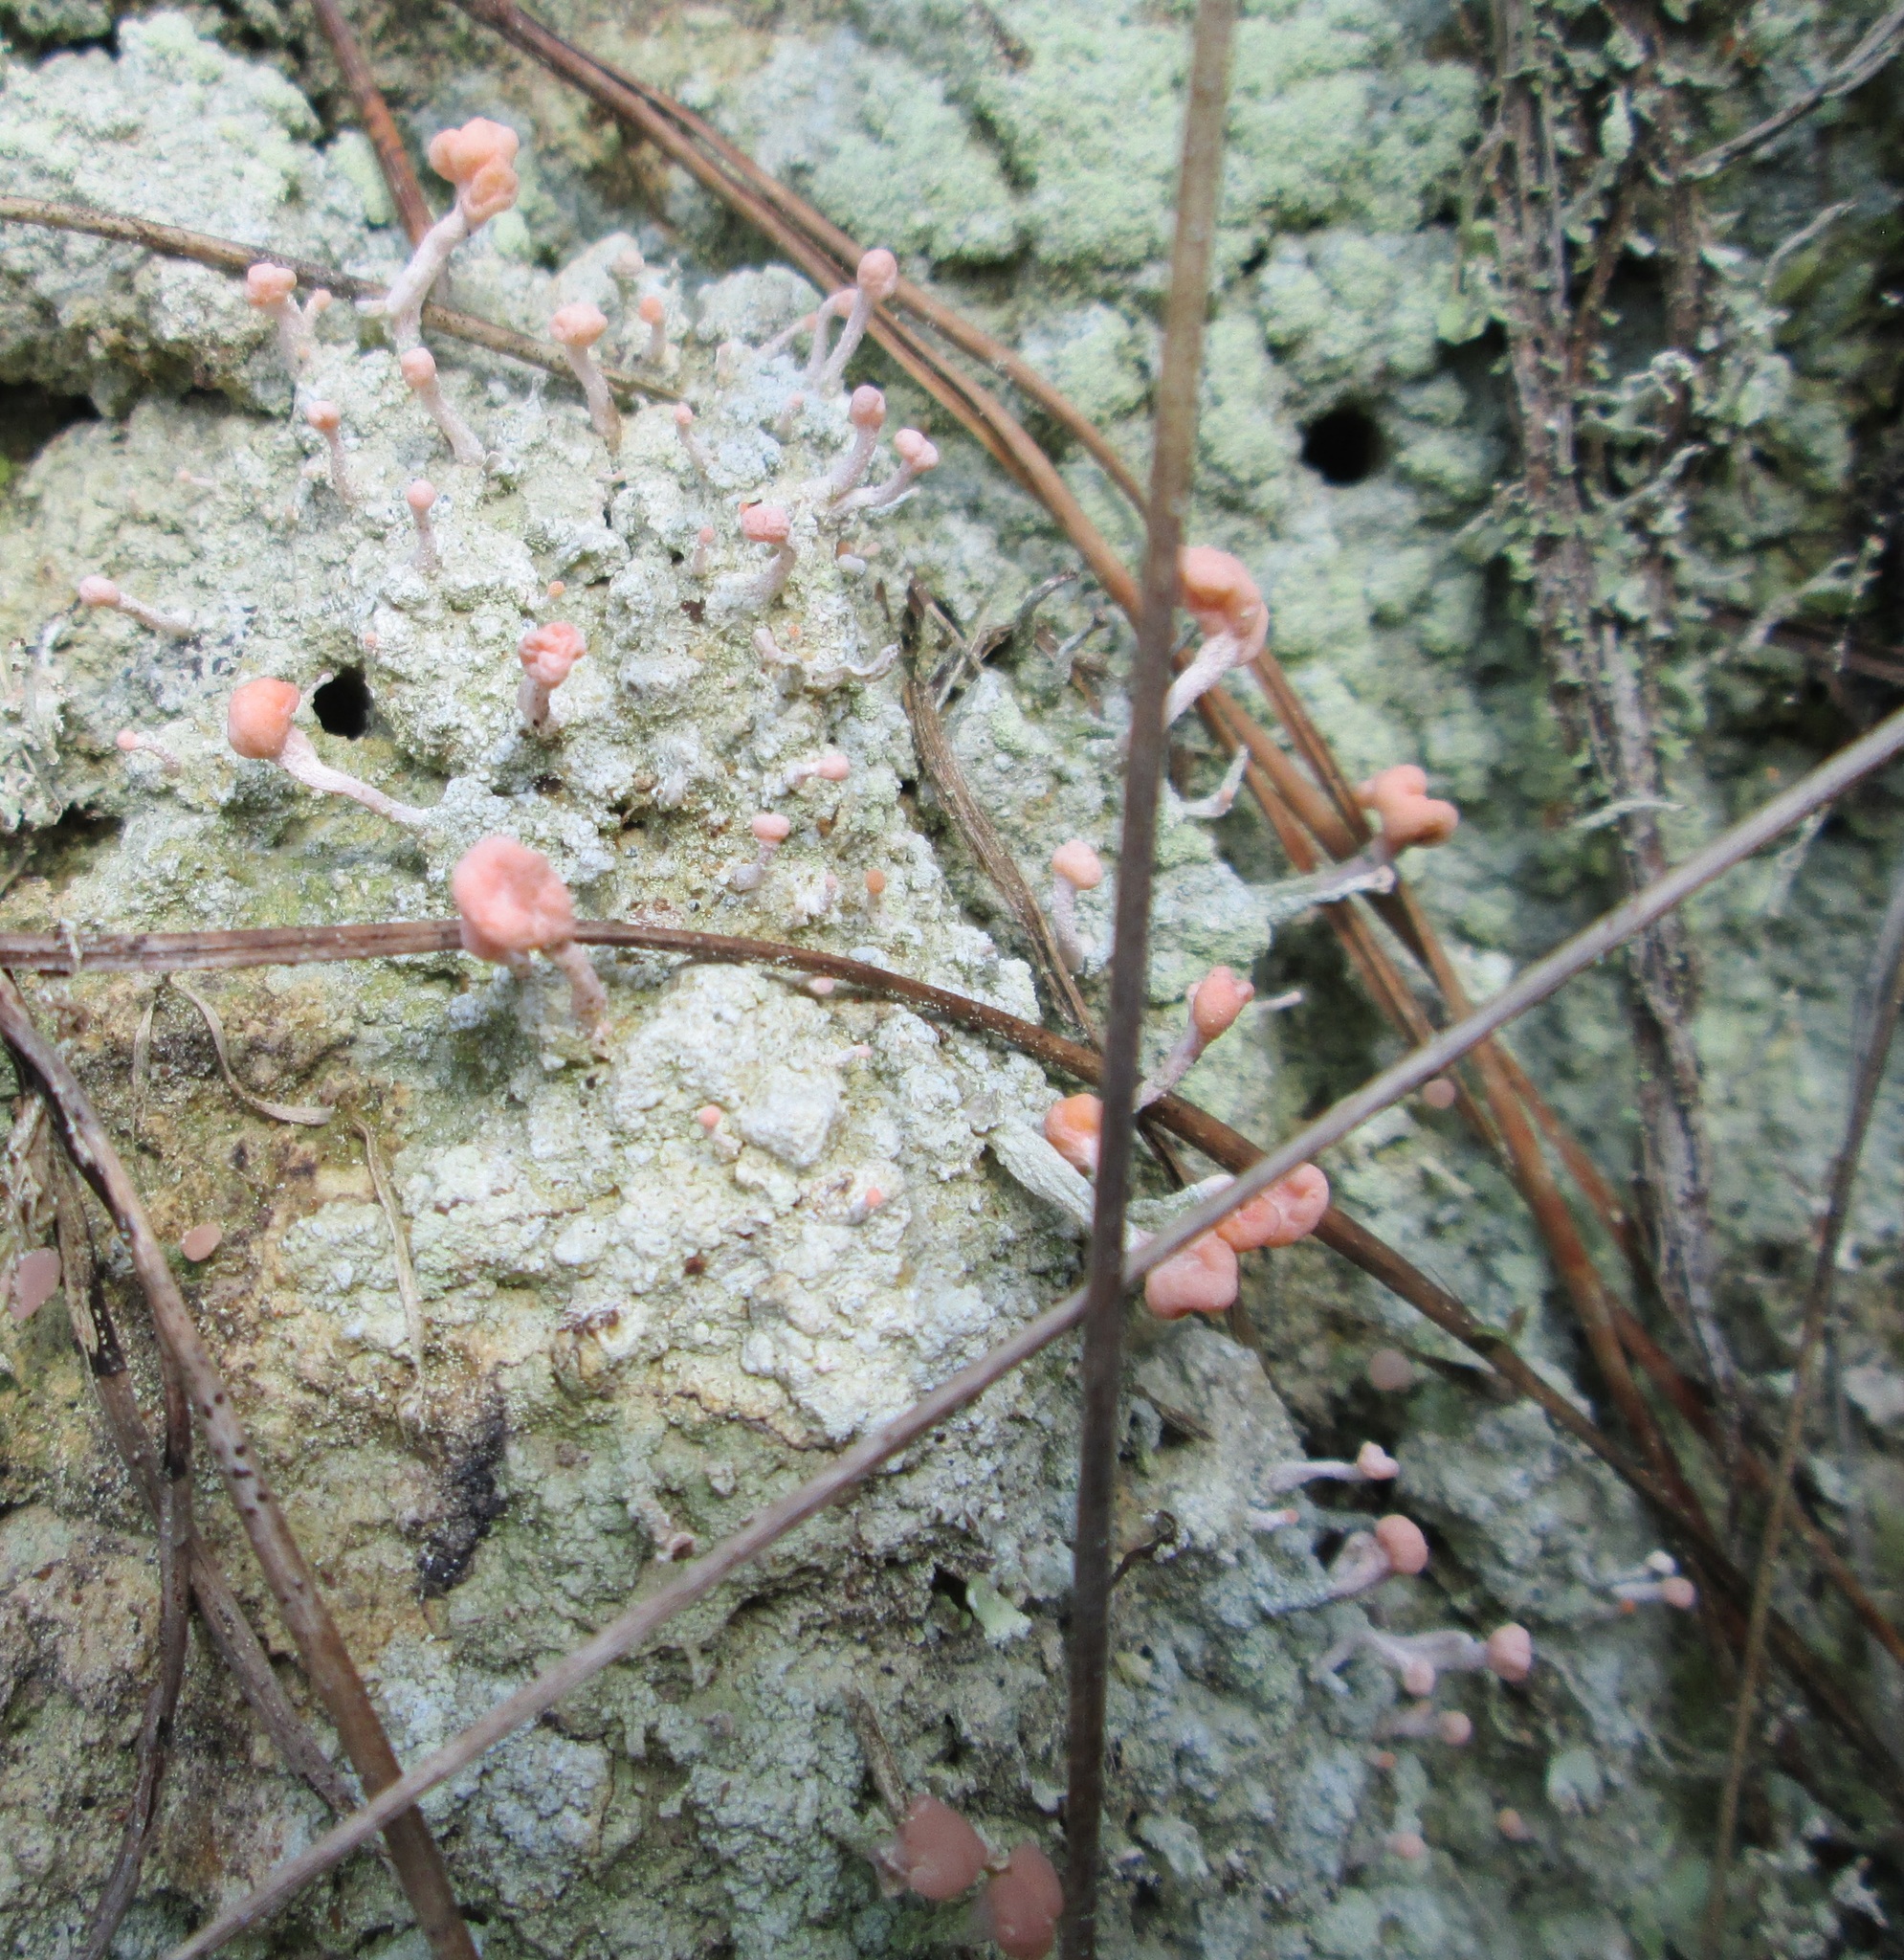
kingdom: Fungi
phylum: Ascomycota
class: Lecanoromycetes
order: Pertusariales
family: Icmadophilaceae
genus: Dibaeis
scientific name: Dibaeis arcuata
